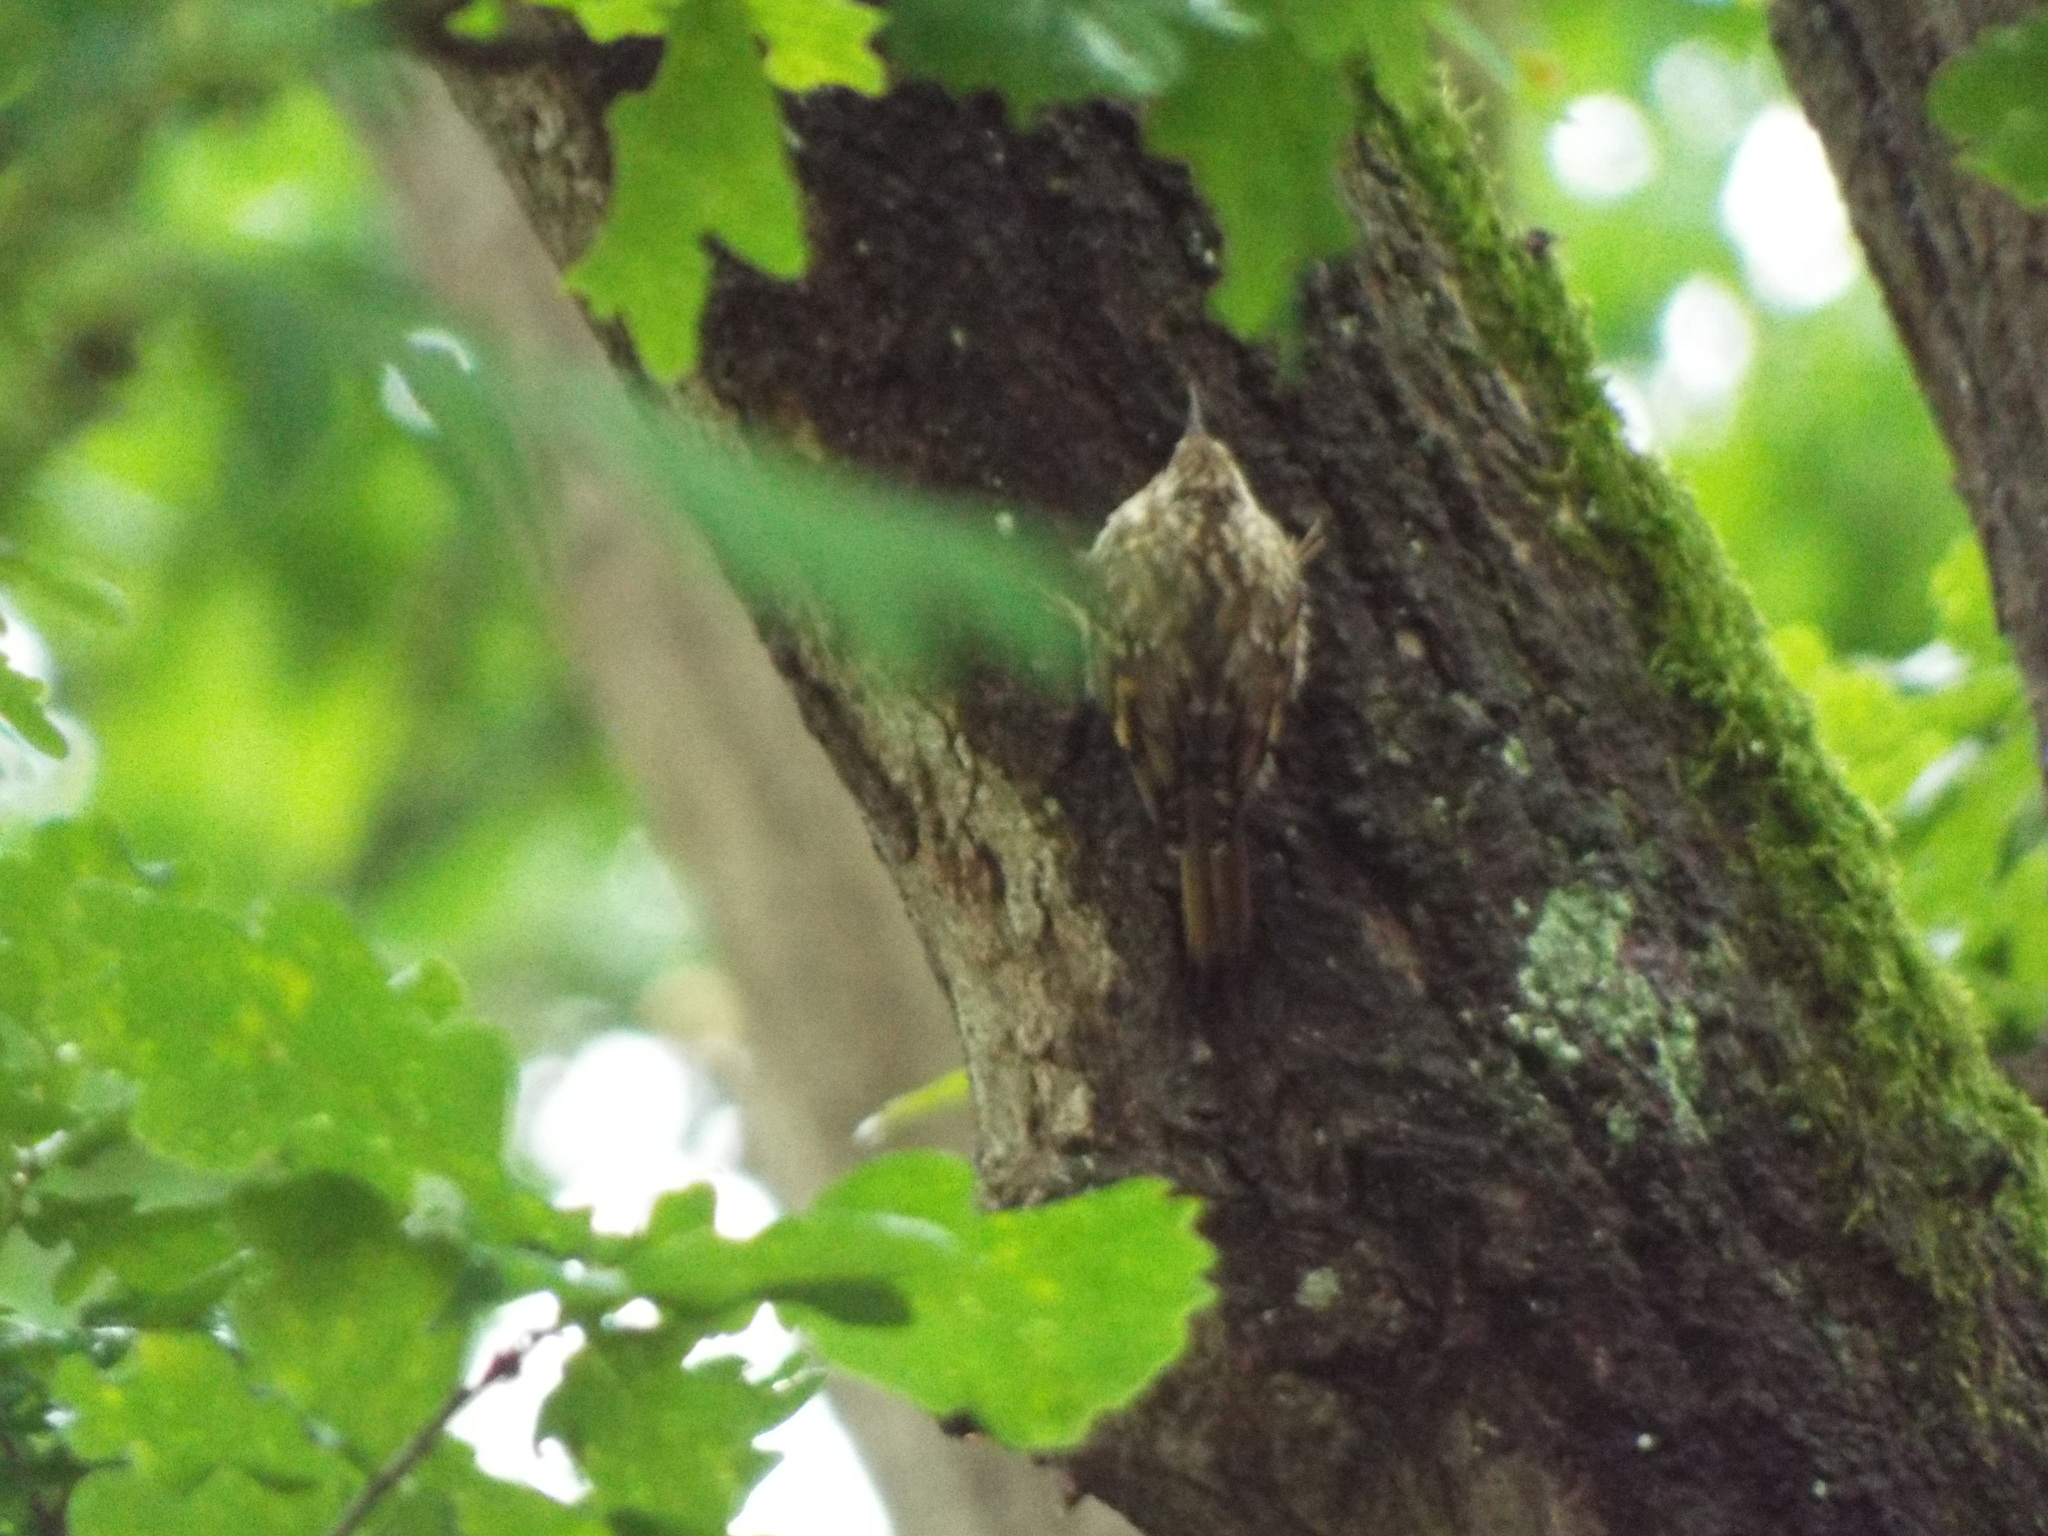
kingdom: Animalia
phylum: Chordata
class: Aves
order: Passeriformes
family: Certhiidae
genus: Certhia
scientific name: Certhia brachydactyla
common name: Short-toed treecreeper
